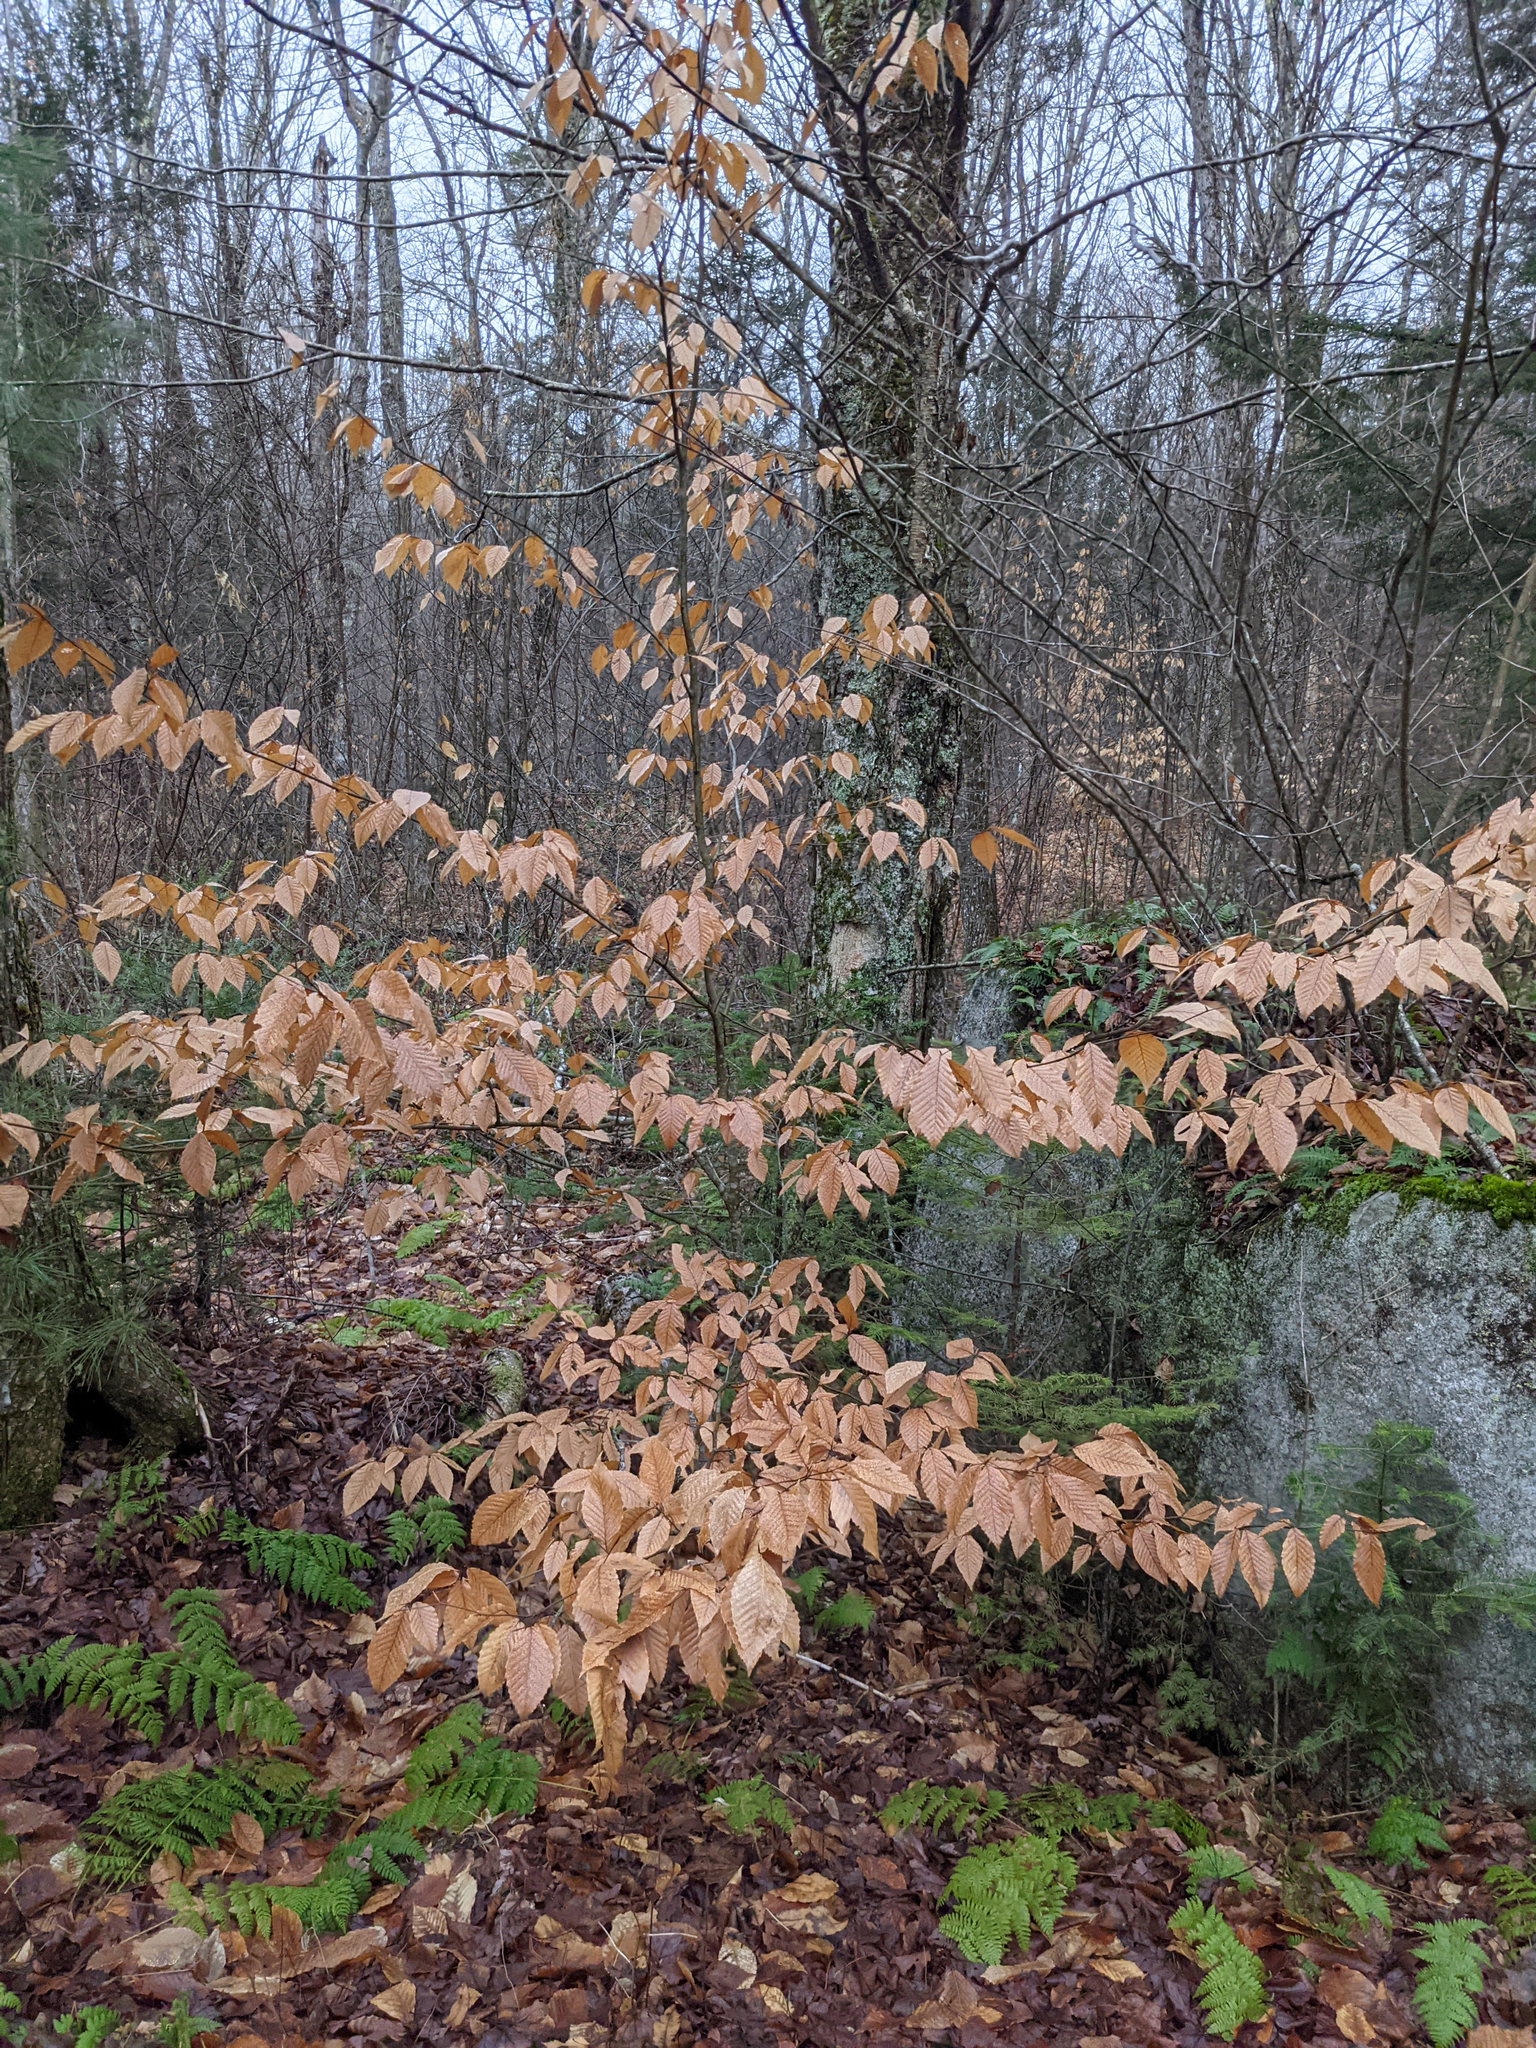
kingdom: Plantae
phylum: Tracheophyta
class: Magnoliopsida
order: Fagales
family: Fagaceae
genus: Fagus
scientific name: Fagus grandifolia
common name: American beech
